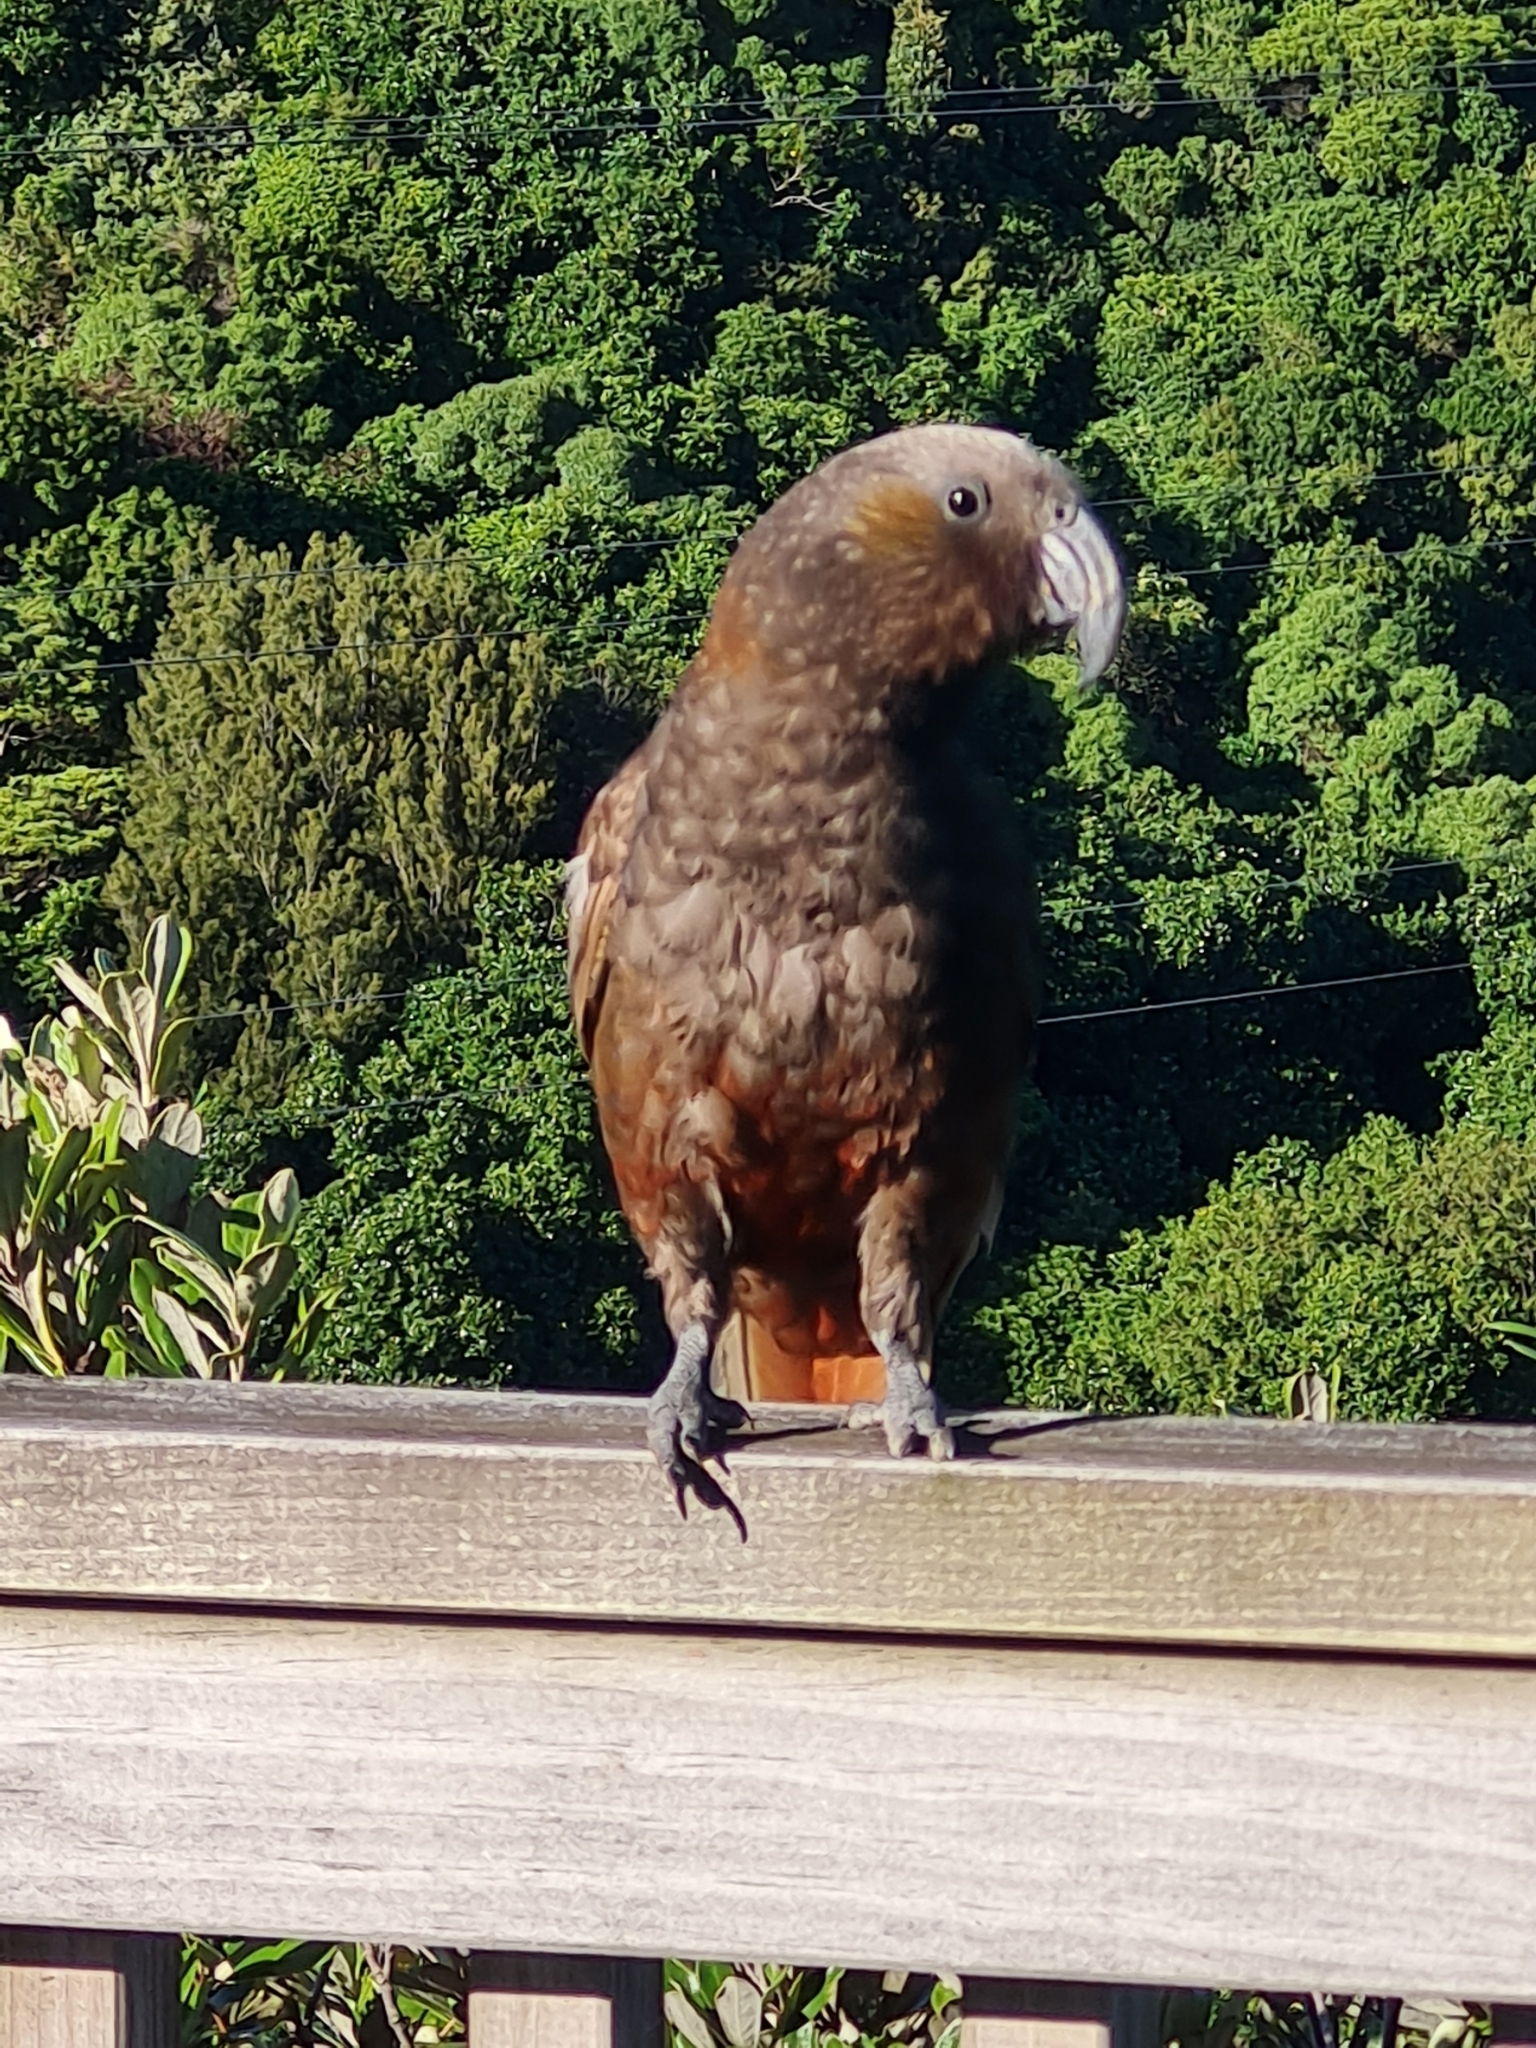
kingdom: Animalia
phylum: Chordata
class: Aves
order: Psittaciformes
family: Psittacidae
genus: Nestor
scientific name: Nestor meridionalis
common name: New zealand kaka
